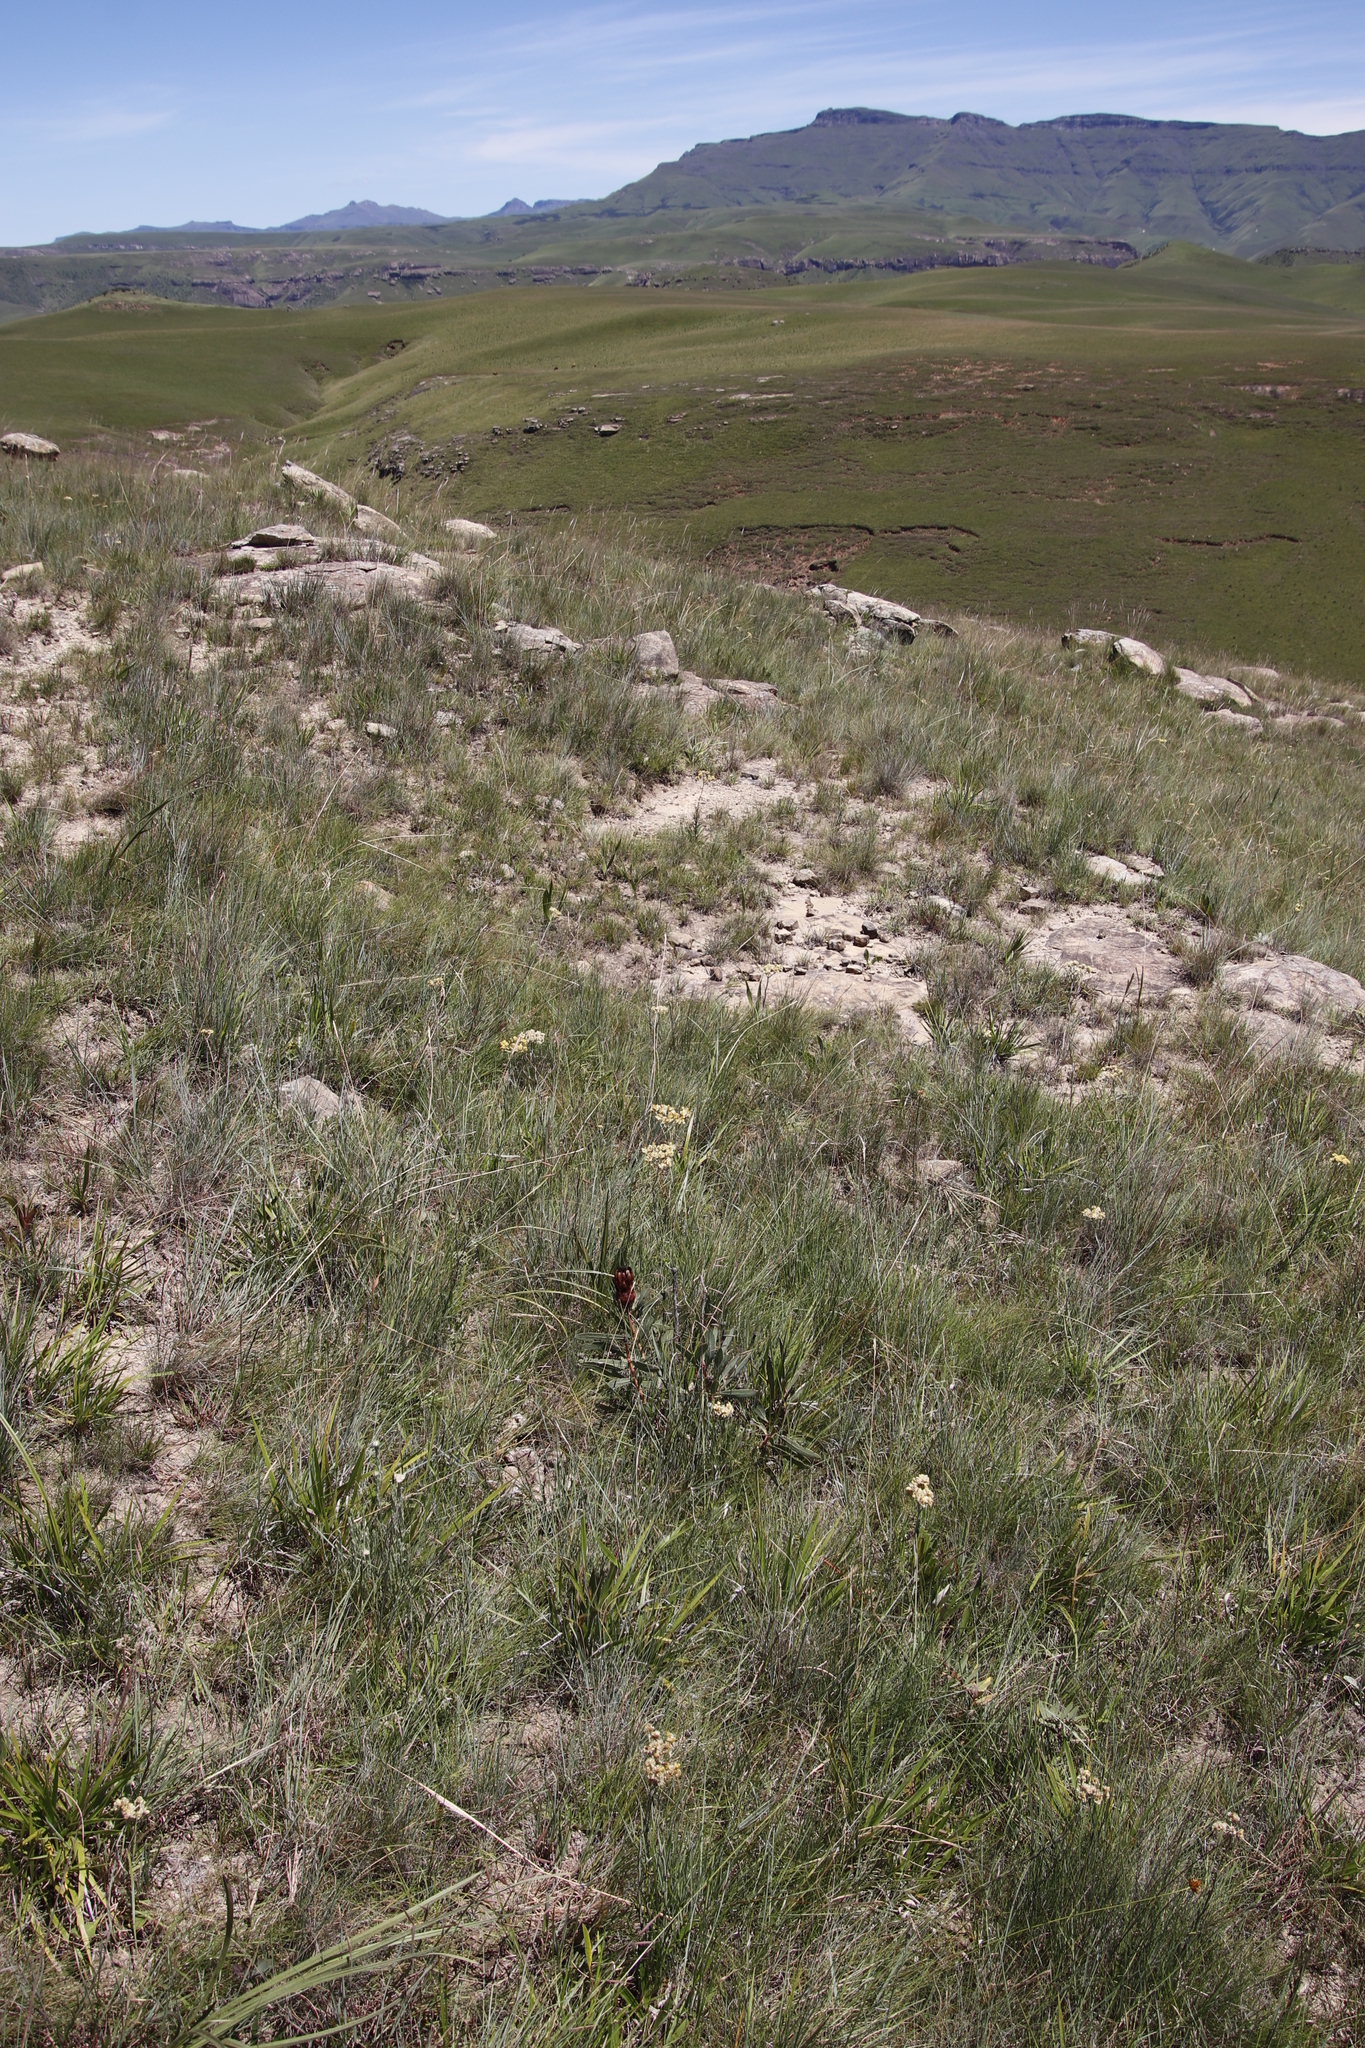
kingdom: Plantae
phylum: Tracheophyta
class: Magnoliopsida
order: Proteales
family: Proteaceae
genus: Protea
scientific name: Protea caffra
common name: Common sugarbush
